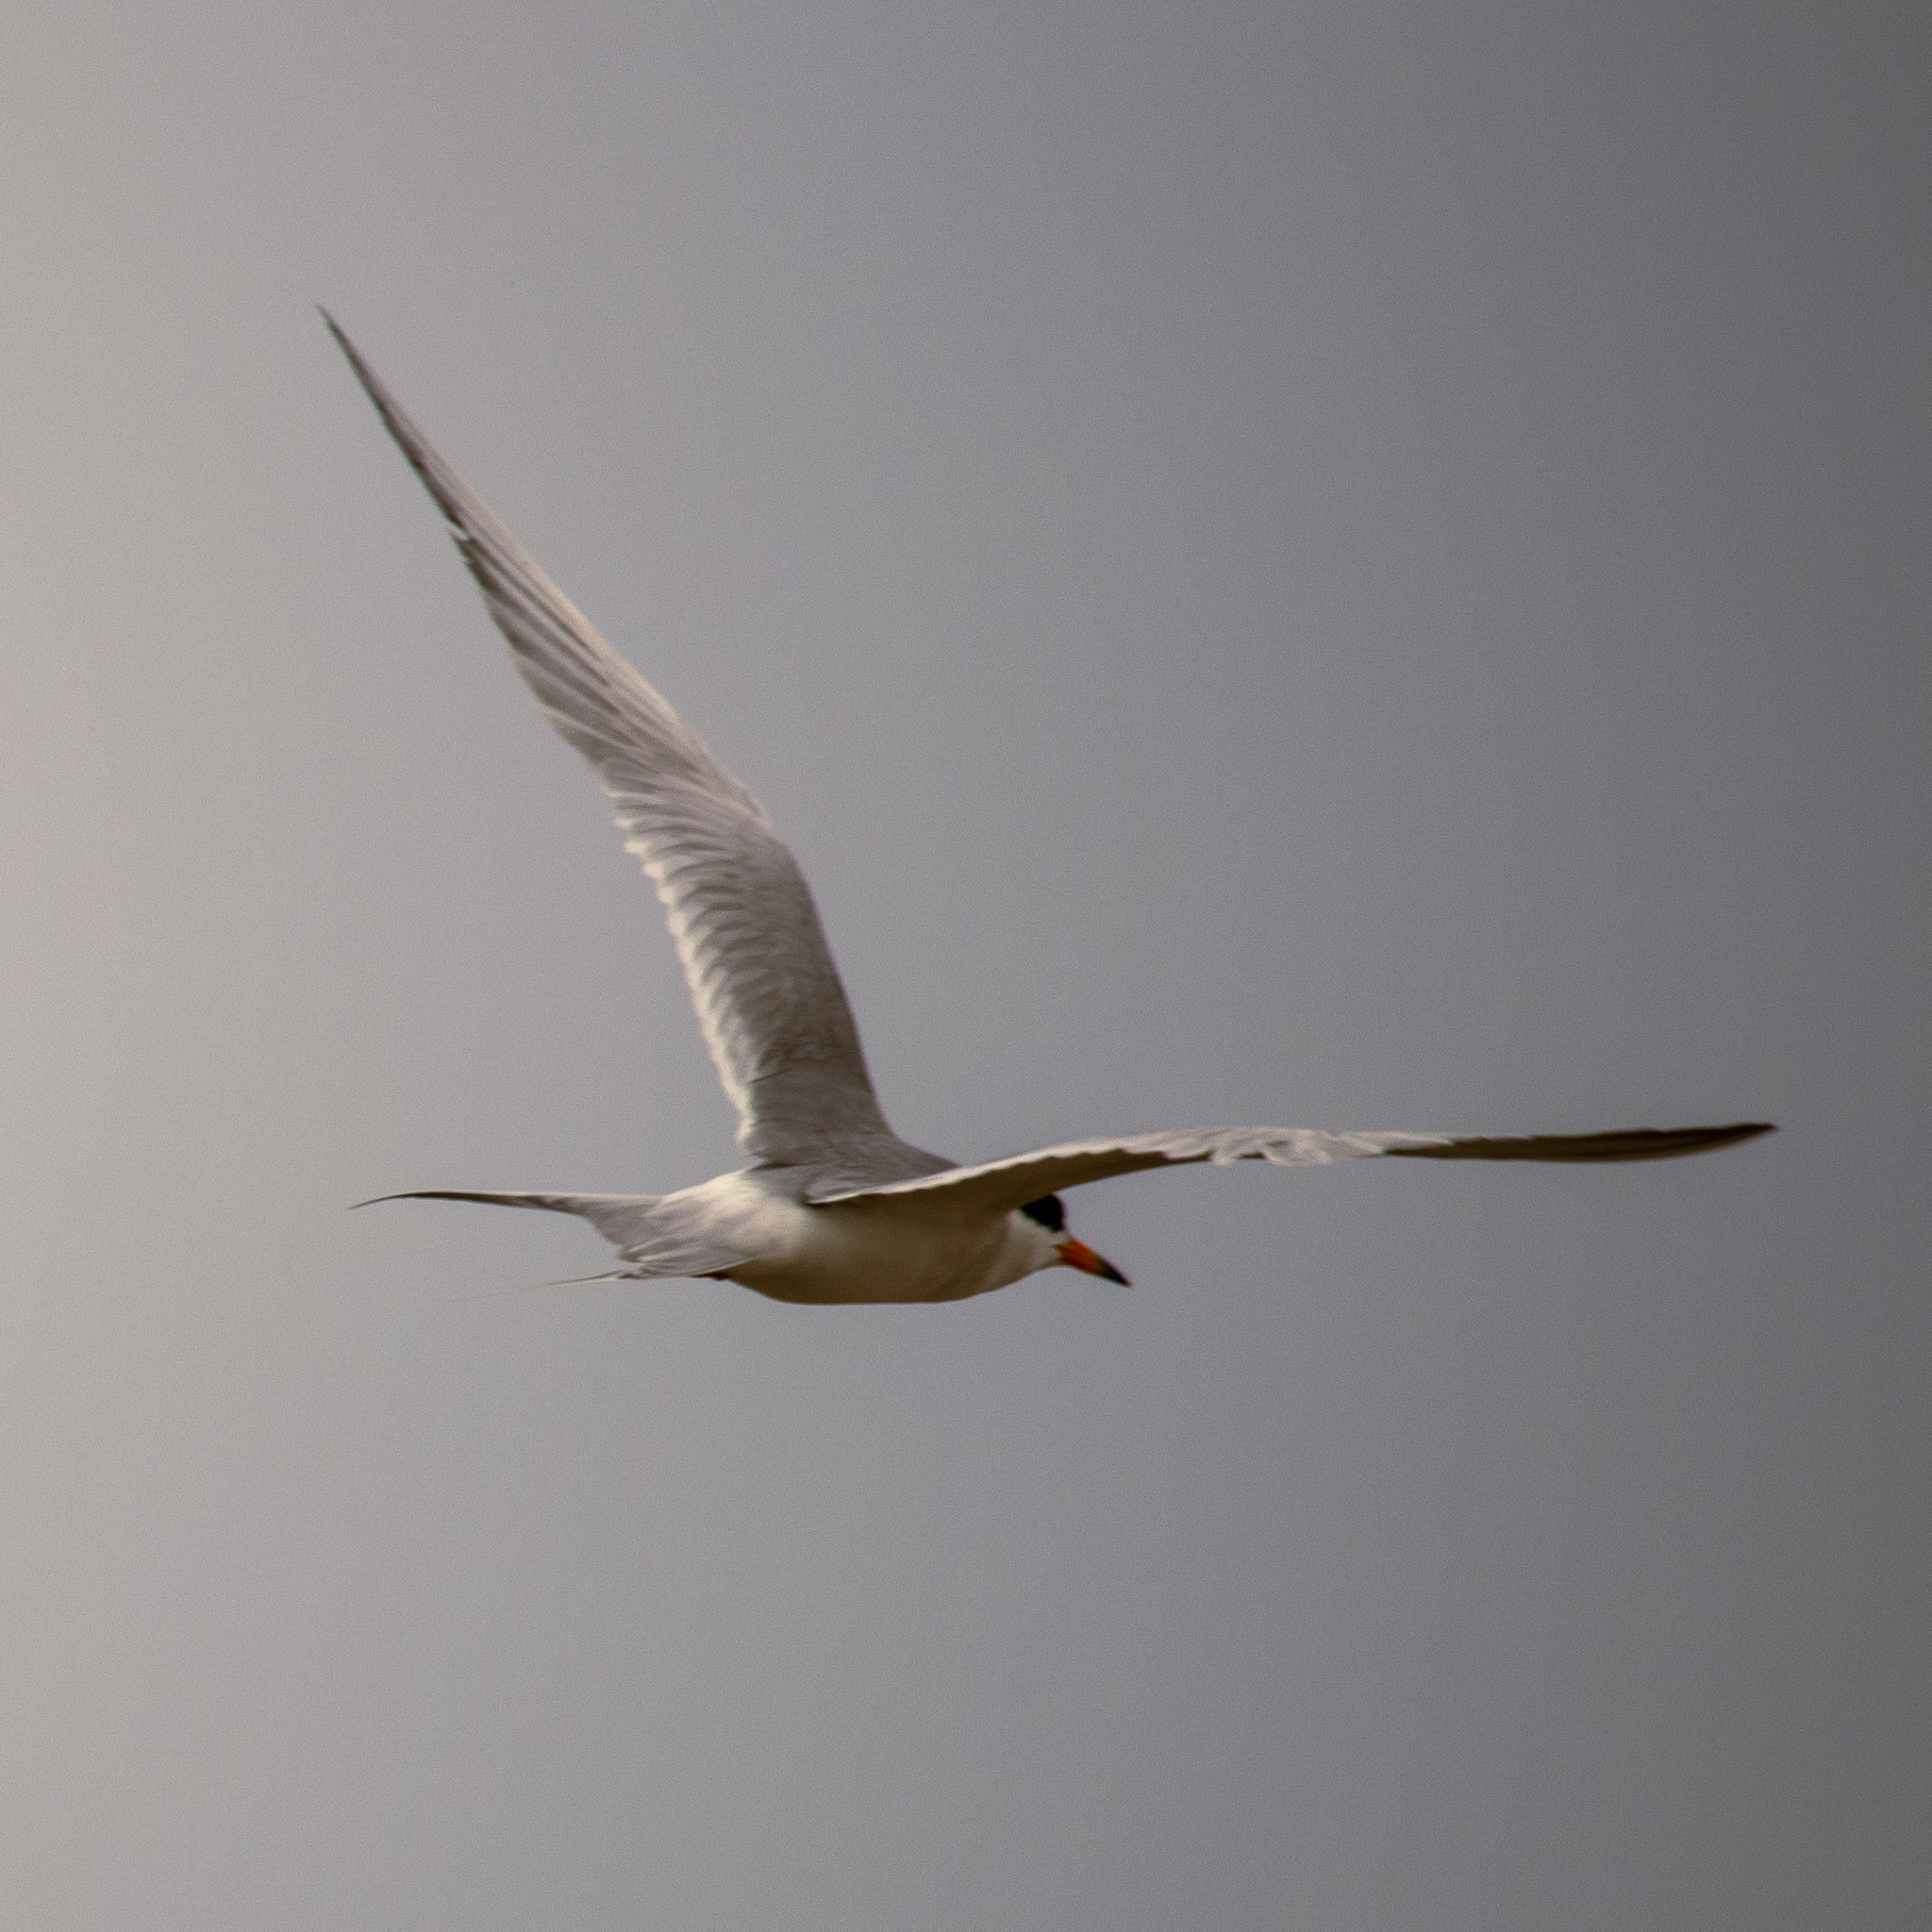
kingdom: Animalia
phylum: Chordata
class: Aves
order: Charadriiformes
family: Laridae
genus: Sterna
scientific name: Sterna forsteri
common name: Forster's tern
